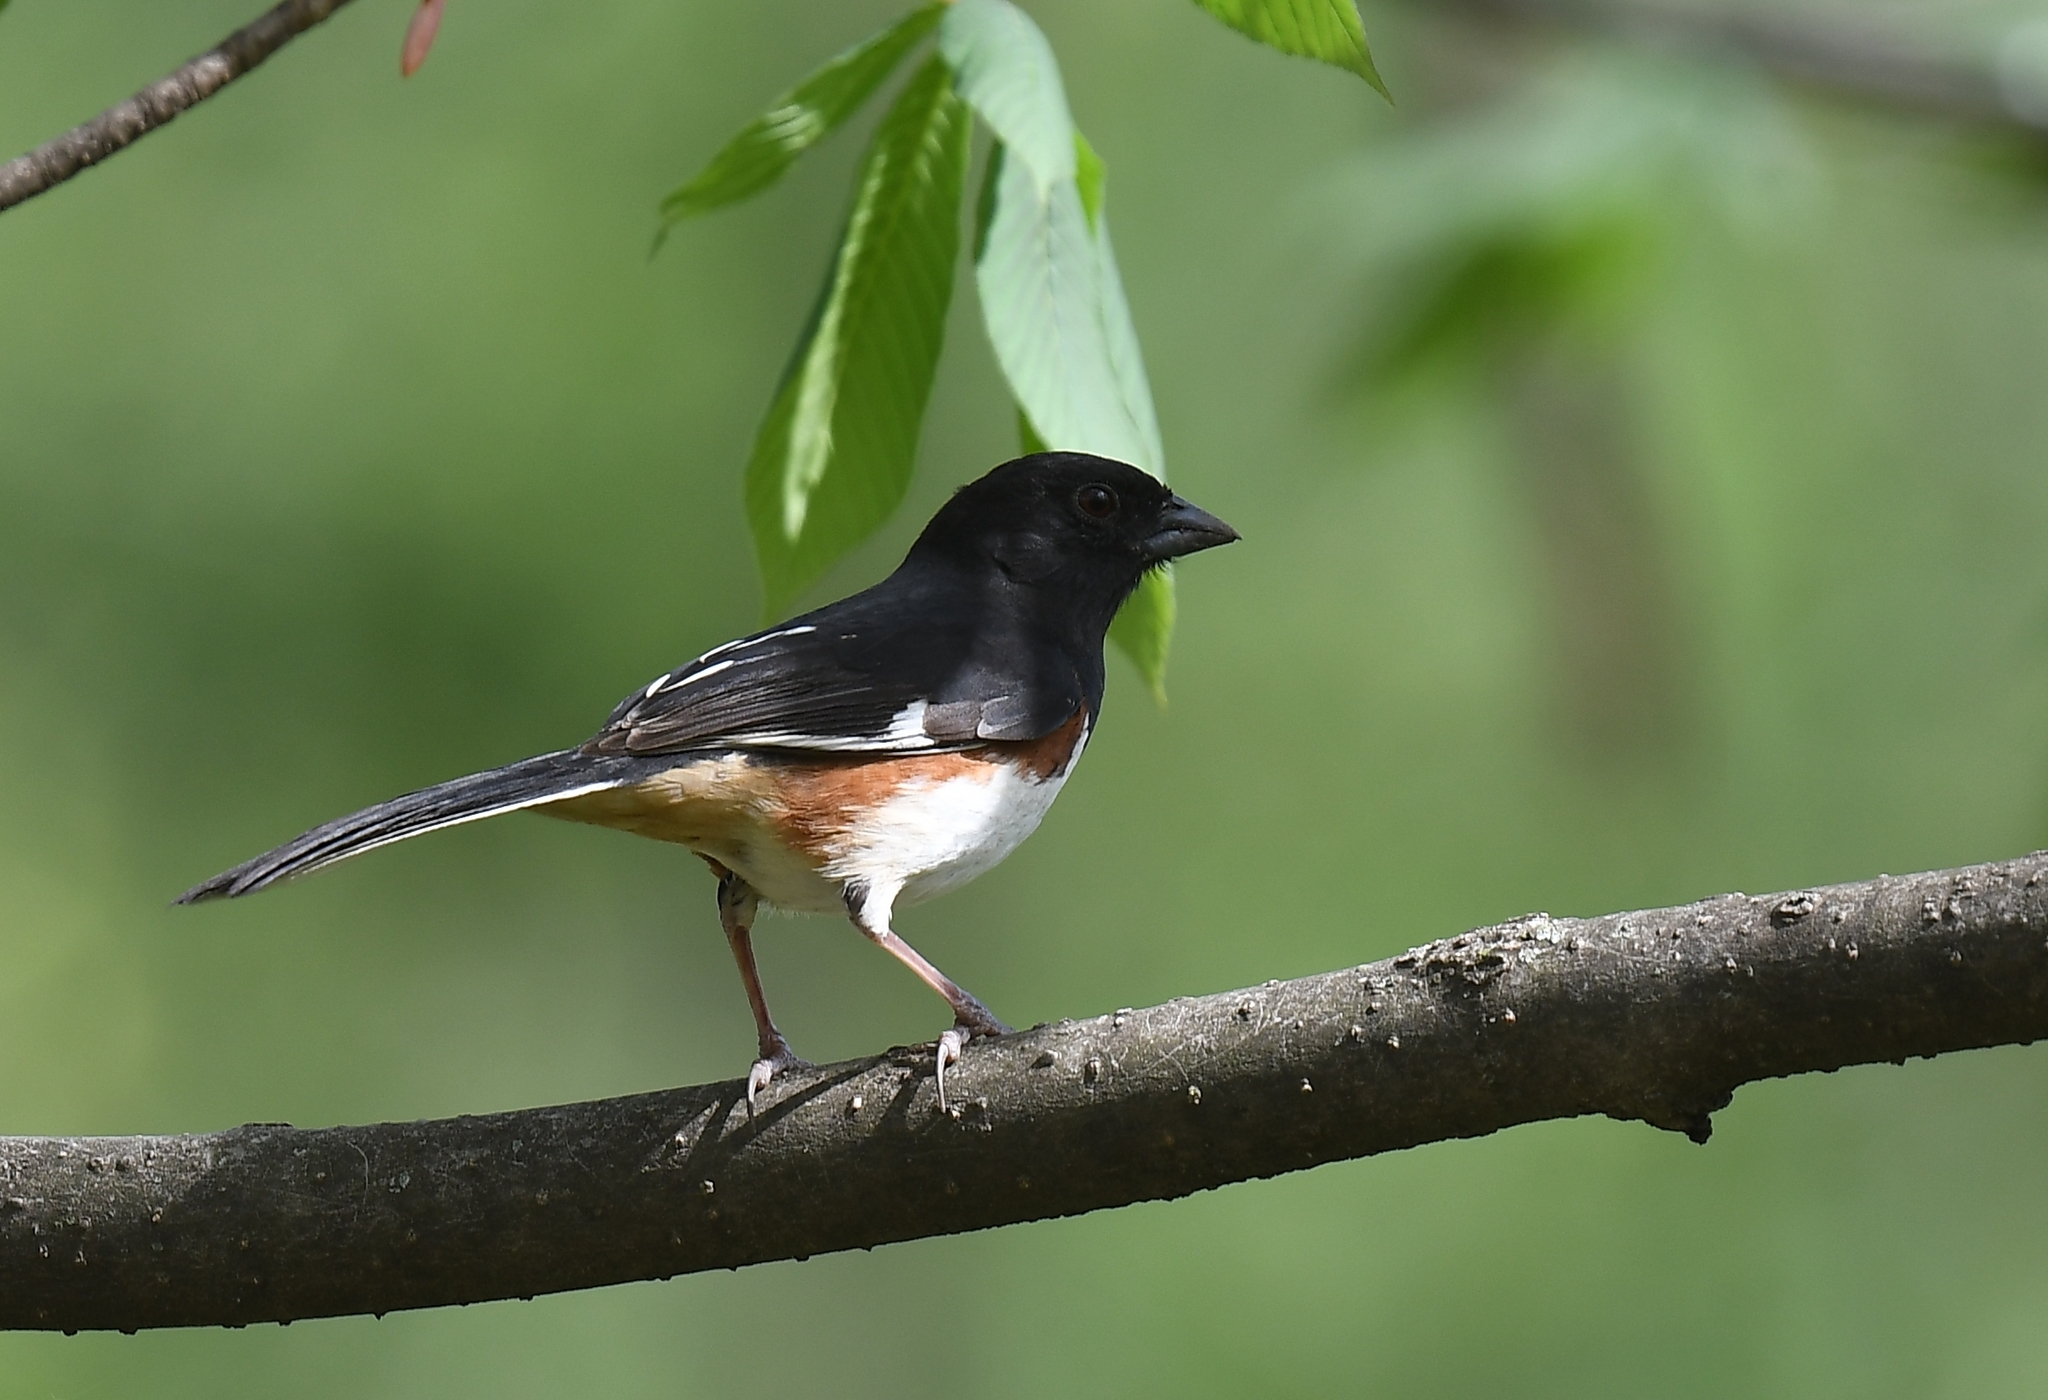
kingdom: Animalia
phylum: Chordata
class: Aves
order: Passeriformes
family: Passerellidae
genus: Pipilo
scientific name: Pipilo erythrophthalmus
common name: Eastern towhee
